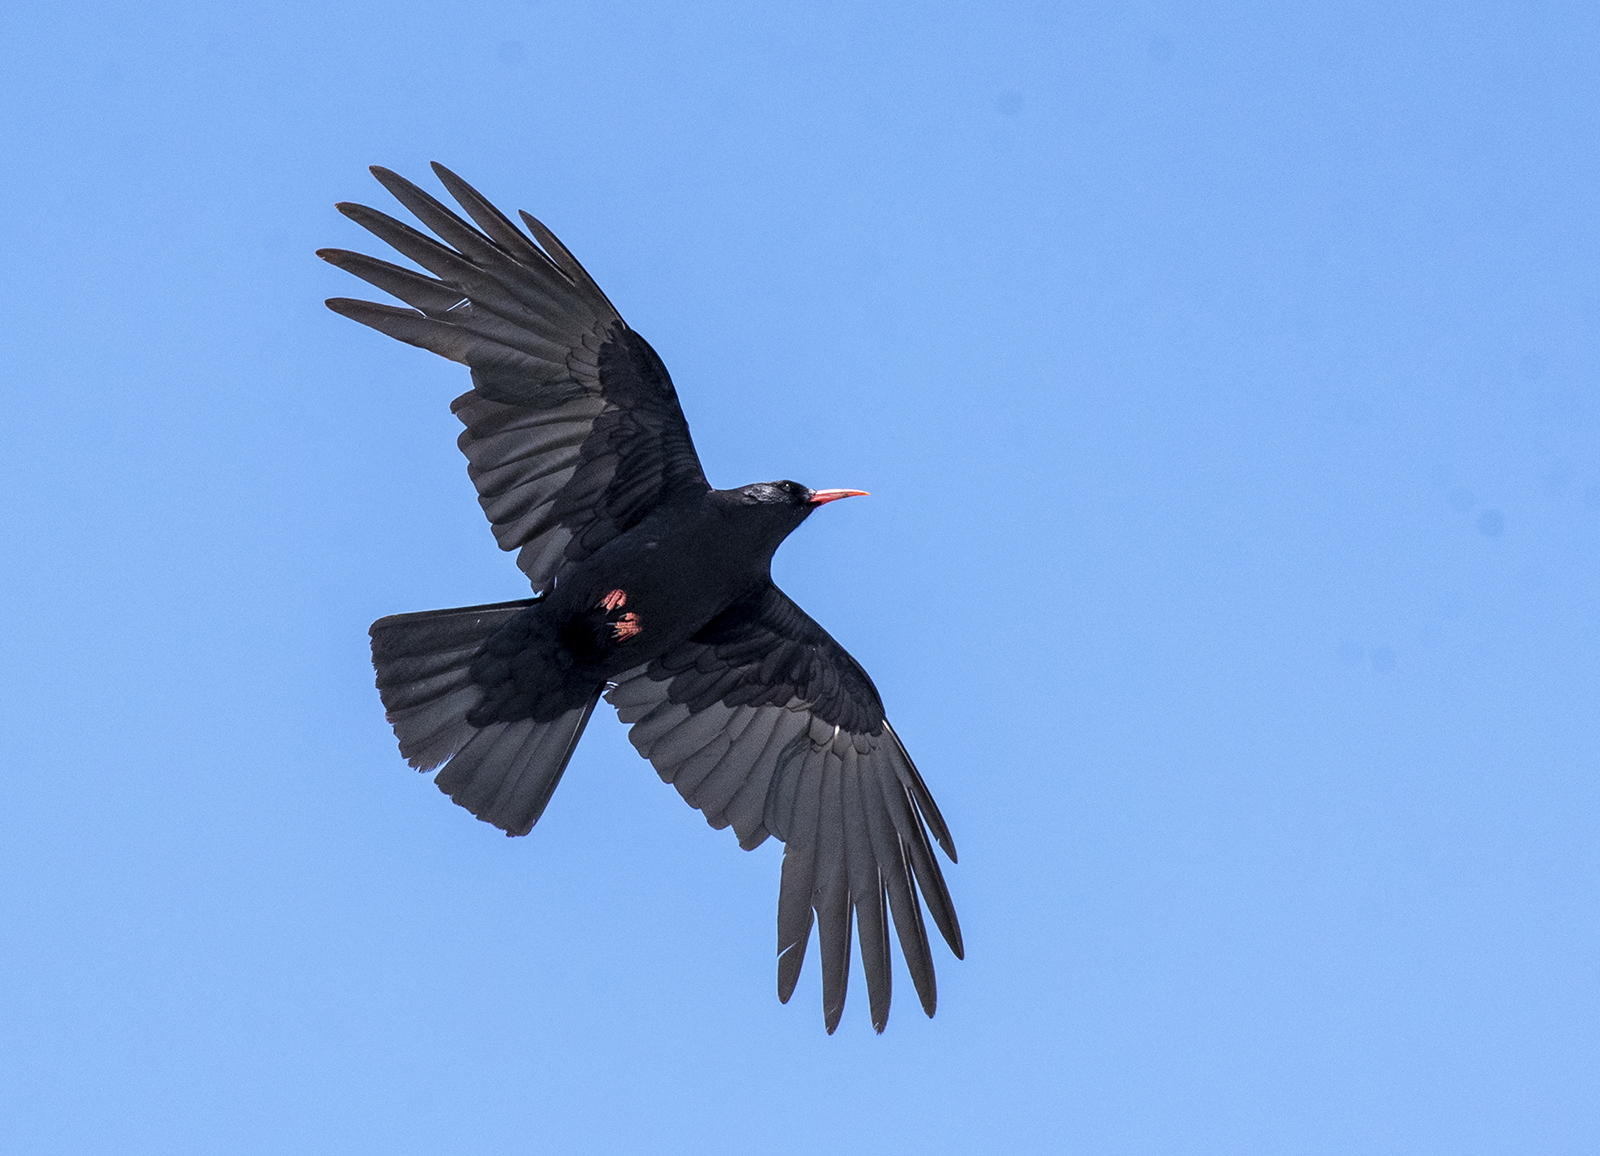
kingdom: Animalia
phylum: Chordata
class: Aves
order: Passeriformes
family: Corvidae
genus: Pyrrhocorax
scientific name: Pyrrhocorax pyrrhocorax
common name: Red-billed chough
